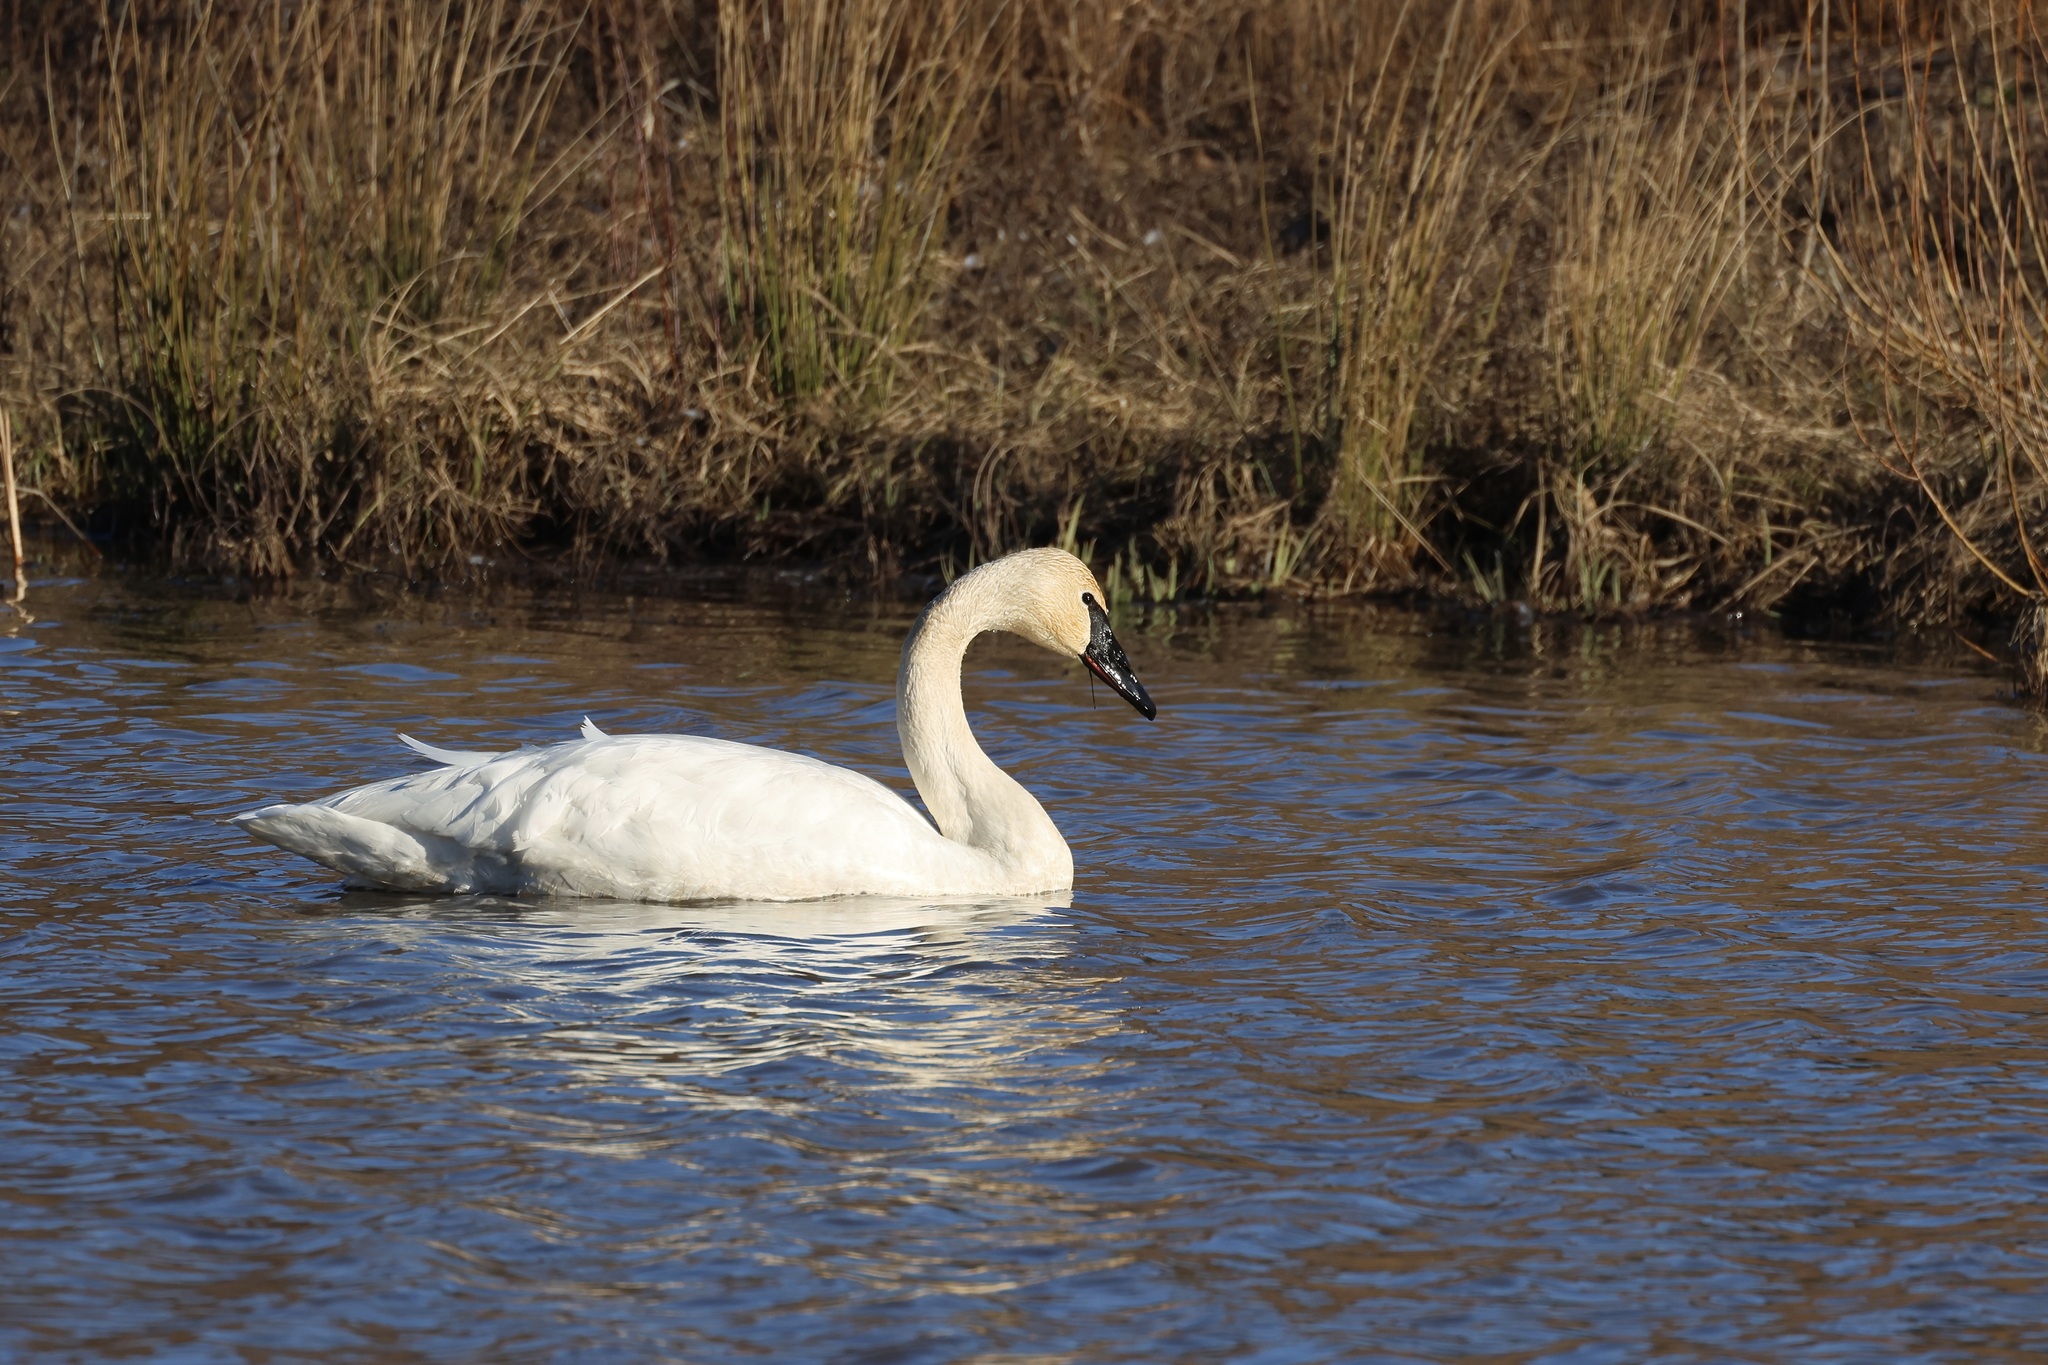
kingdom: Animalia
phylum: Chordata
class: Aves
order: Anseriformes
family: Anatidae
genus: Cygnus
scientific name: Cygnus buccinator
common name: Trumpeter swan
